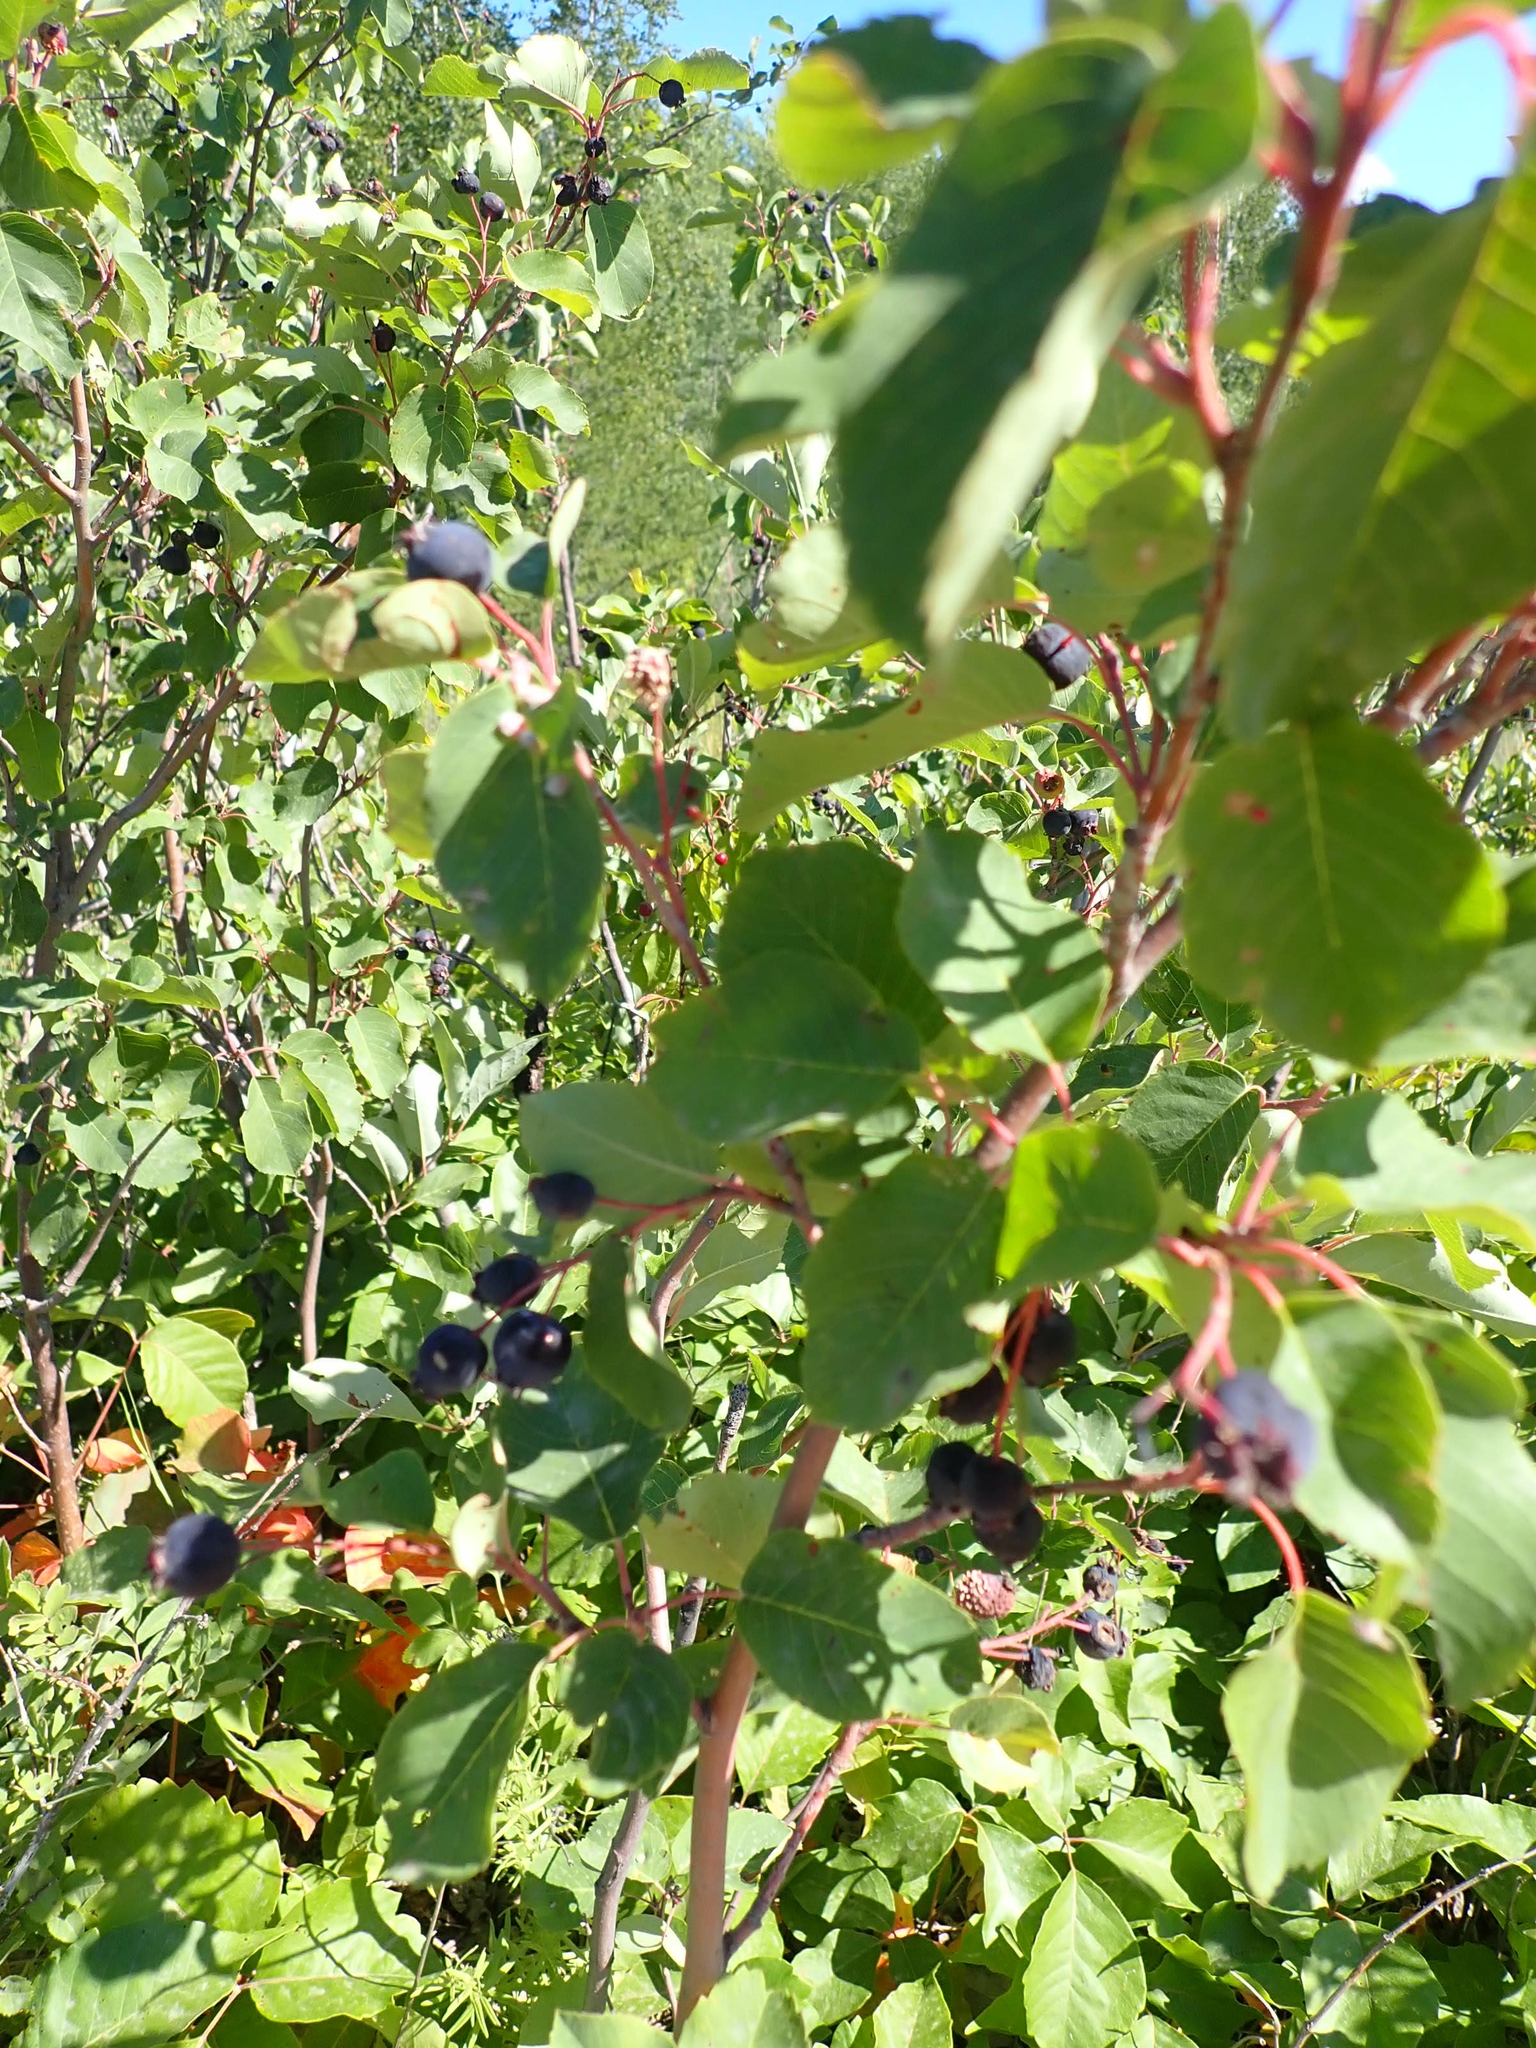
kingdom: Plantae
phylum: Tracheophyta
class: Magnoliopsida
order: Rosales
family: Rosaceae
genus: Amelanchier
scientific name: Amelanchier alnifolia
